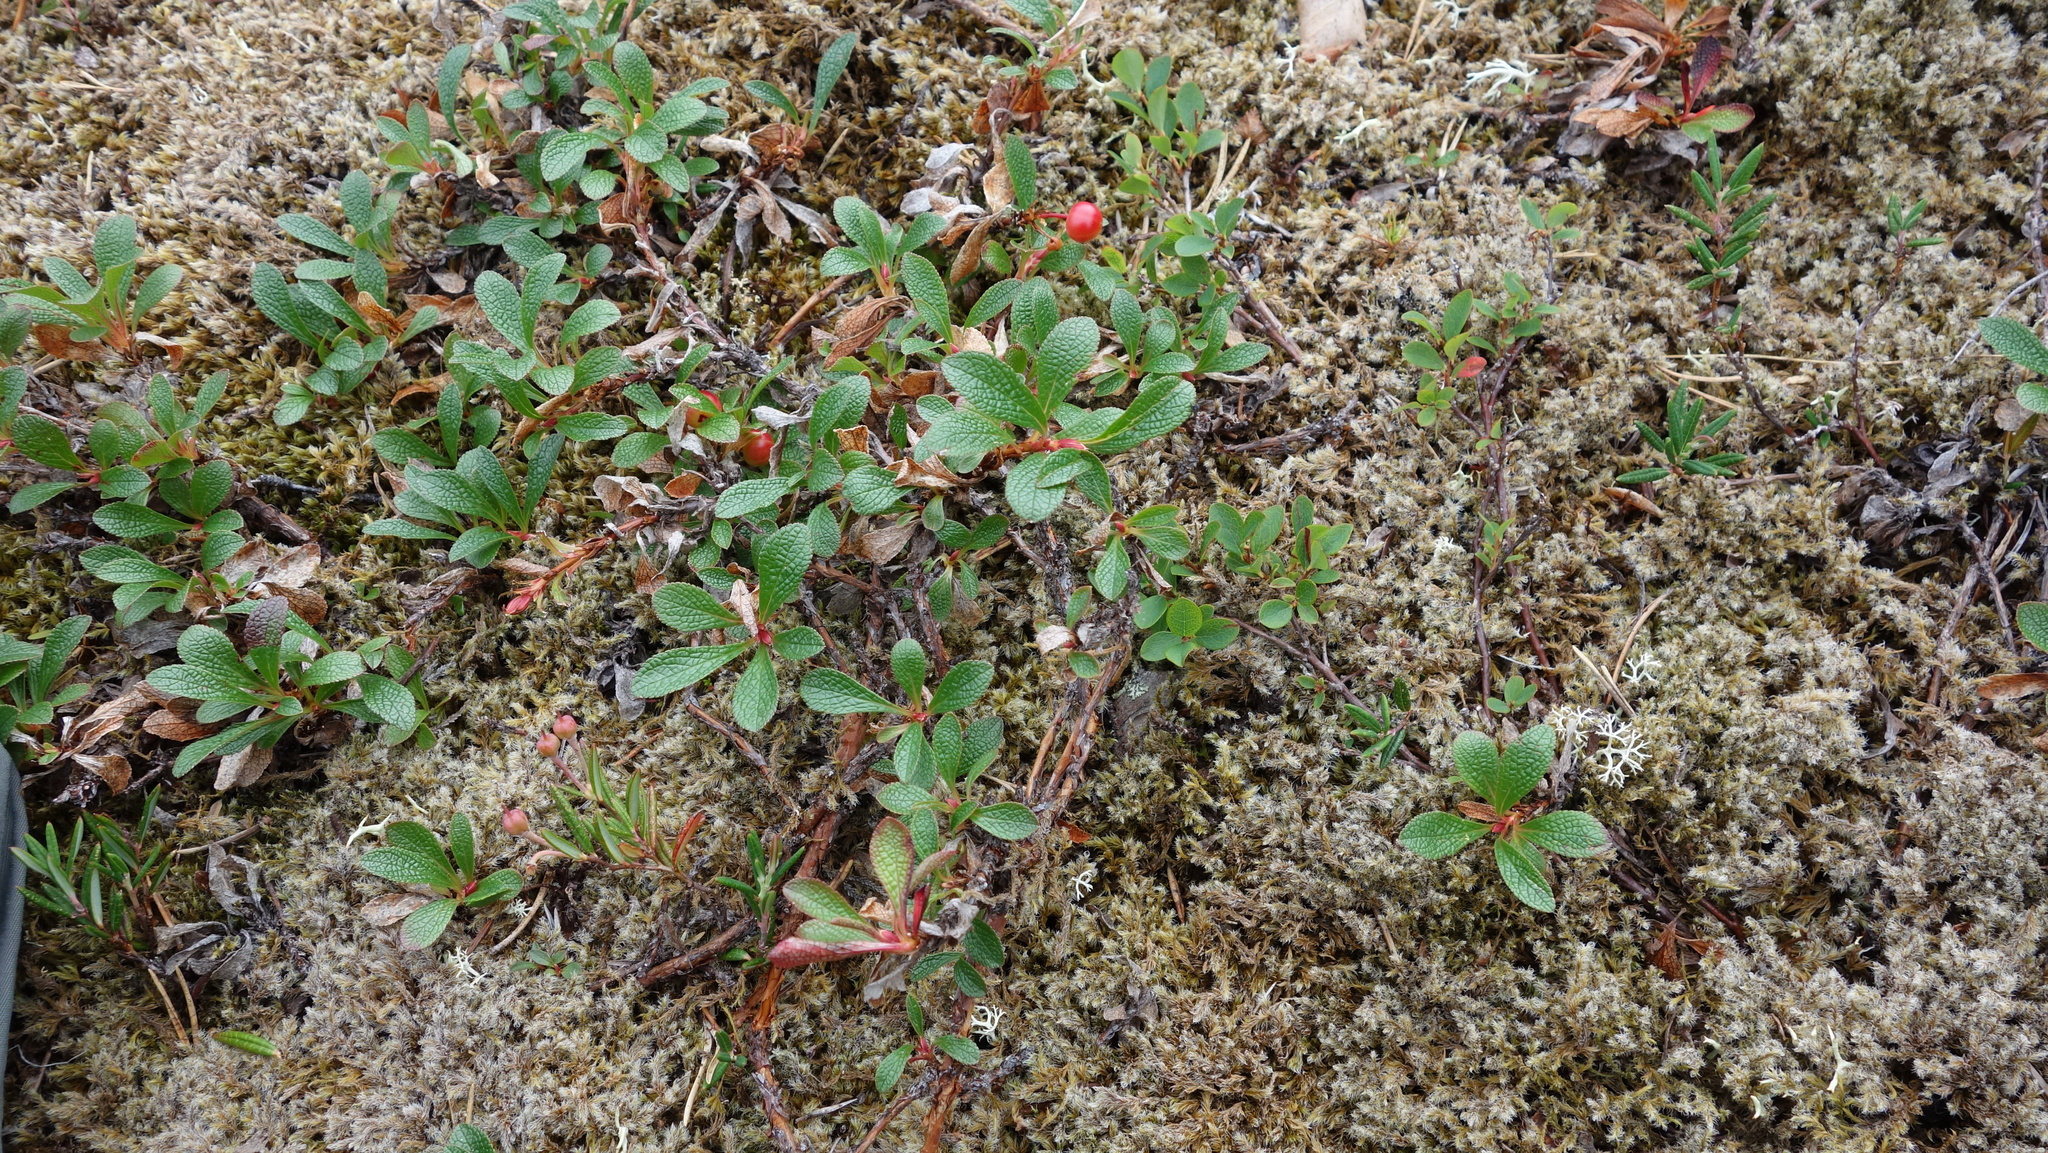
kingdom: Plantae
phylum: Tracheophyta
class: Magnoliopsida
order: Ericales
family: Ericaceae
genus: Arctostaphylos
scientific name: Arctostaphylos alpinus
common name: Alpine bearberry
